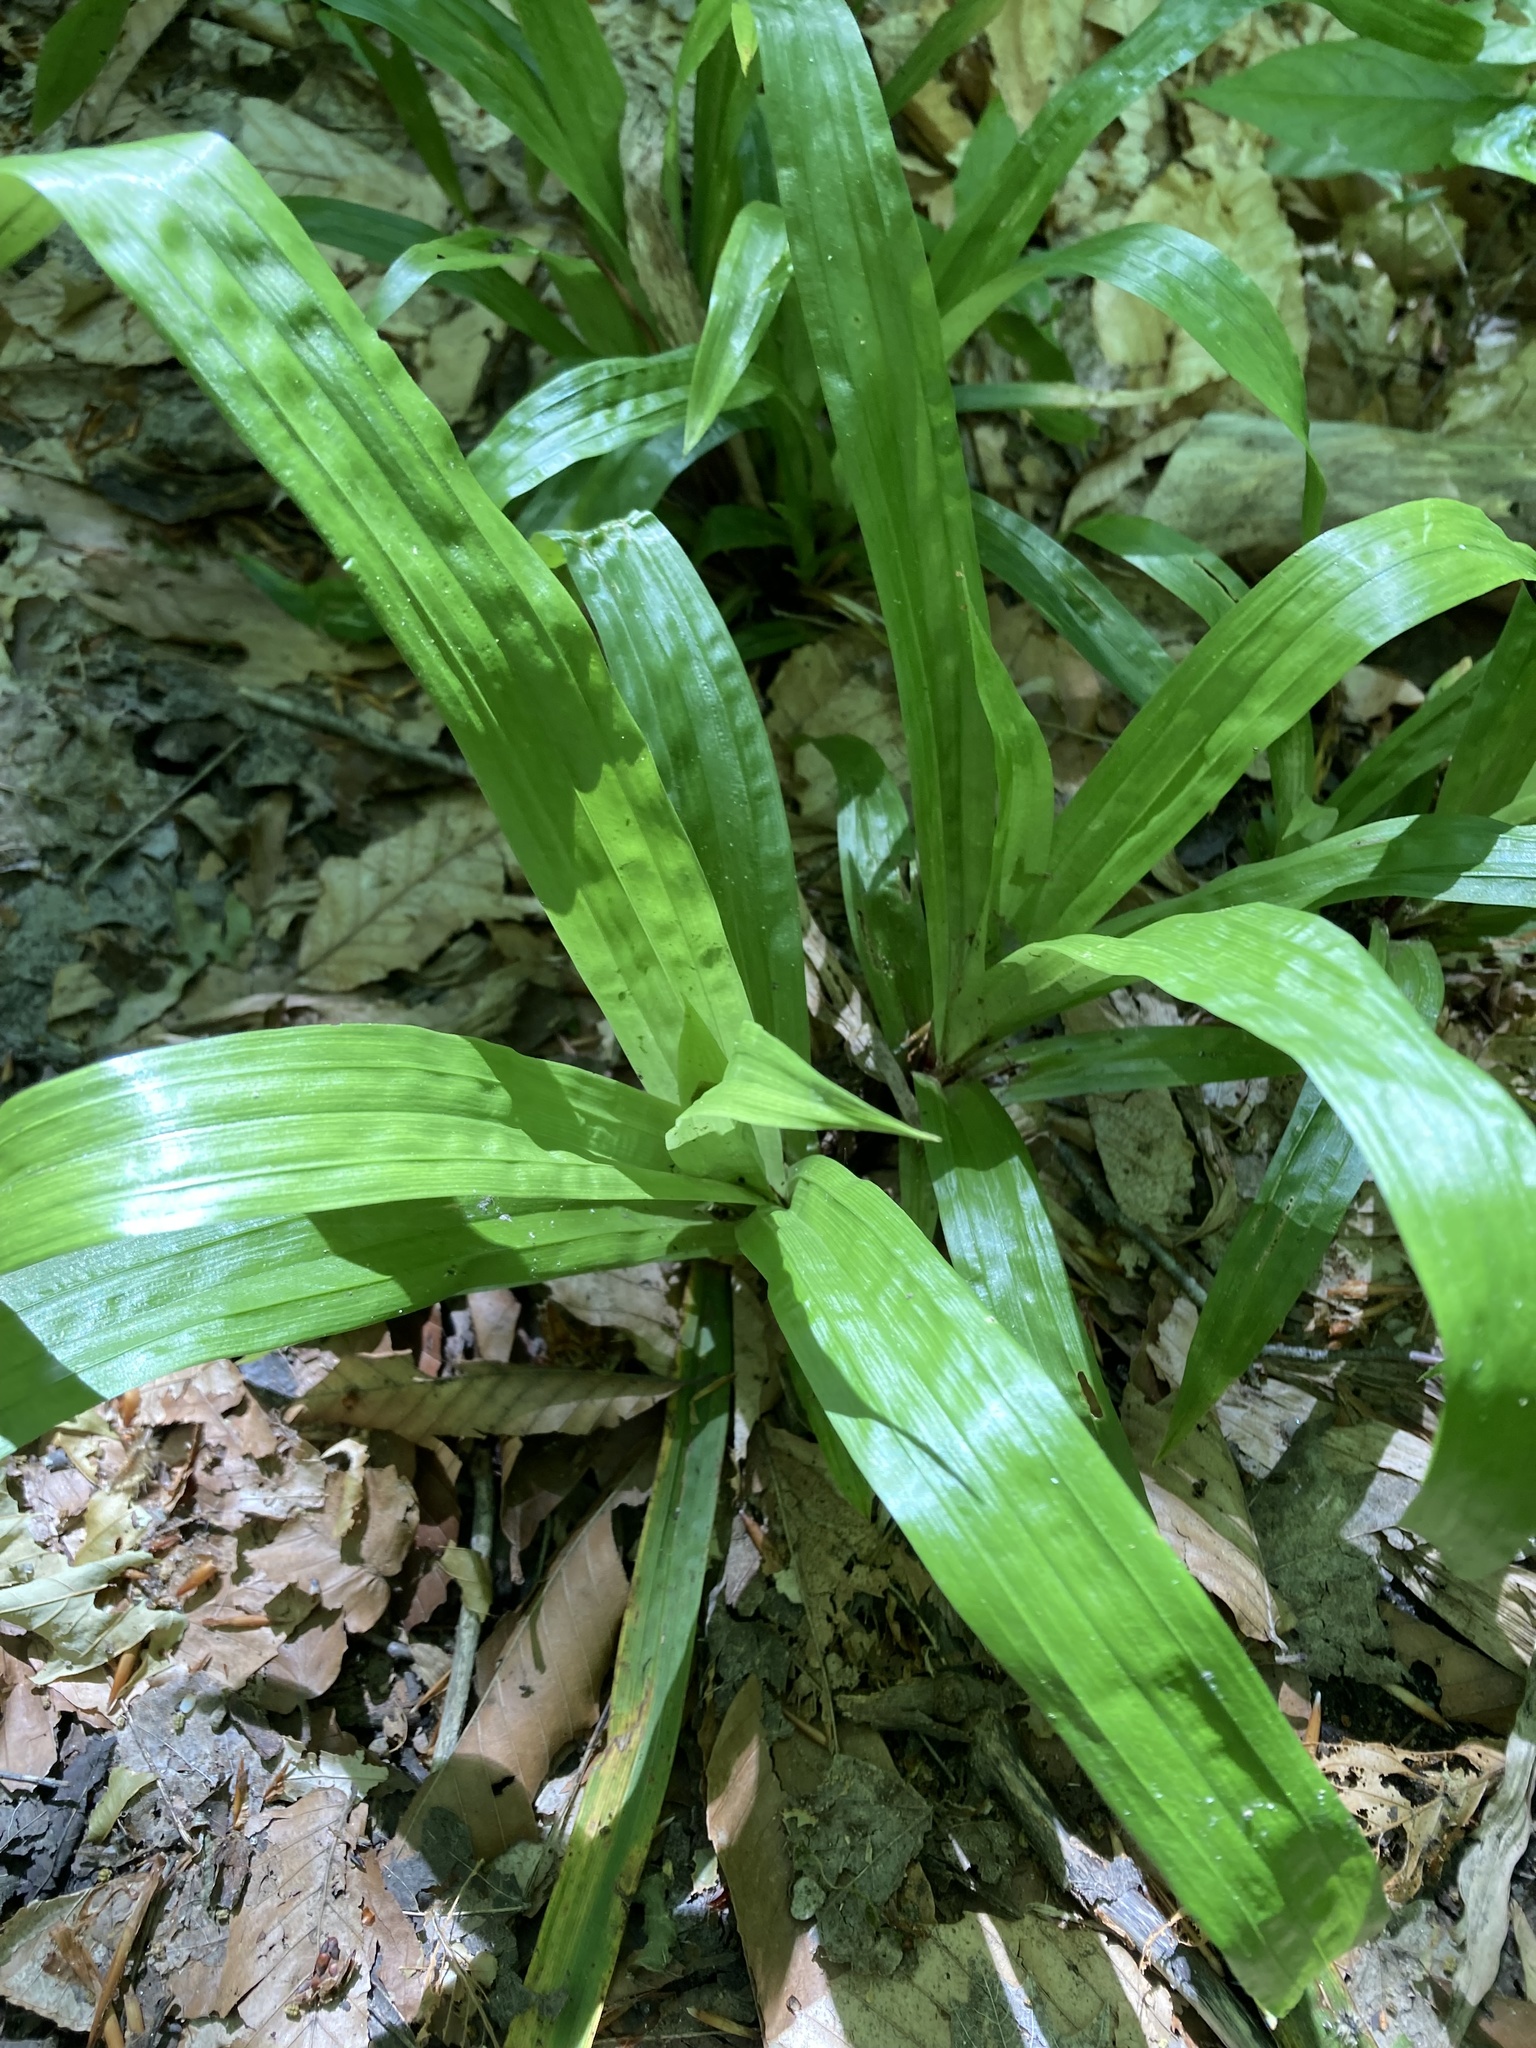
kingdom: Plantae
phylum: Tracheophyta
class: Liliopsida
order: Poales
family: Cyperaceae
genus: Carex
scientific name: Carex plantaginea
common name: Plantain-leaved sedge
